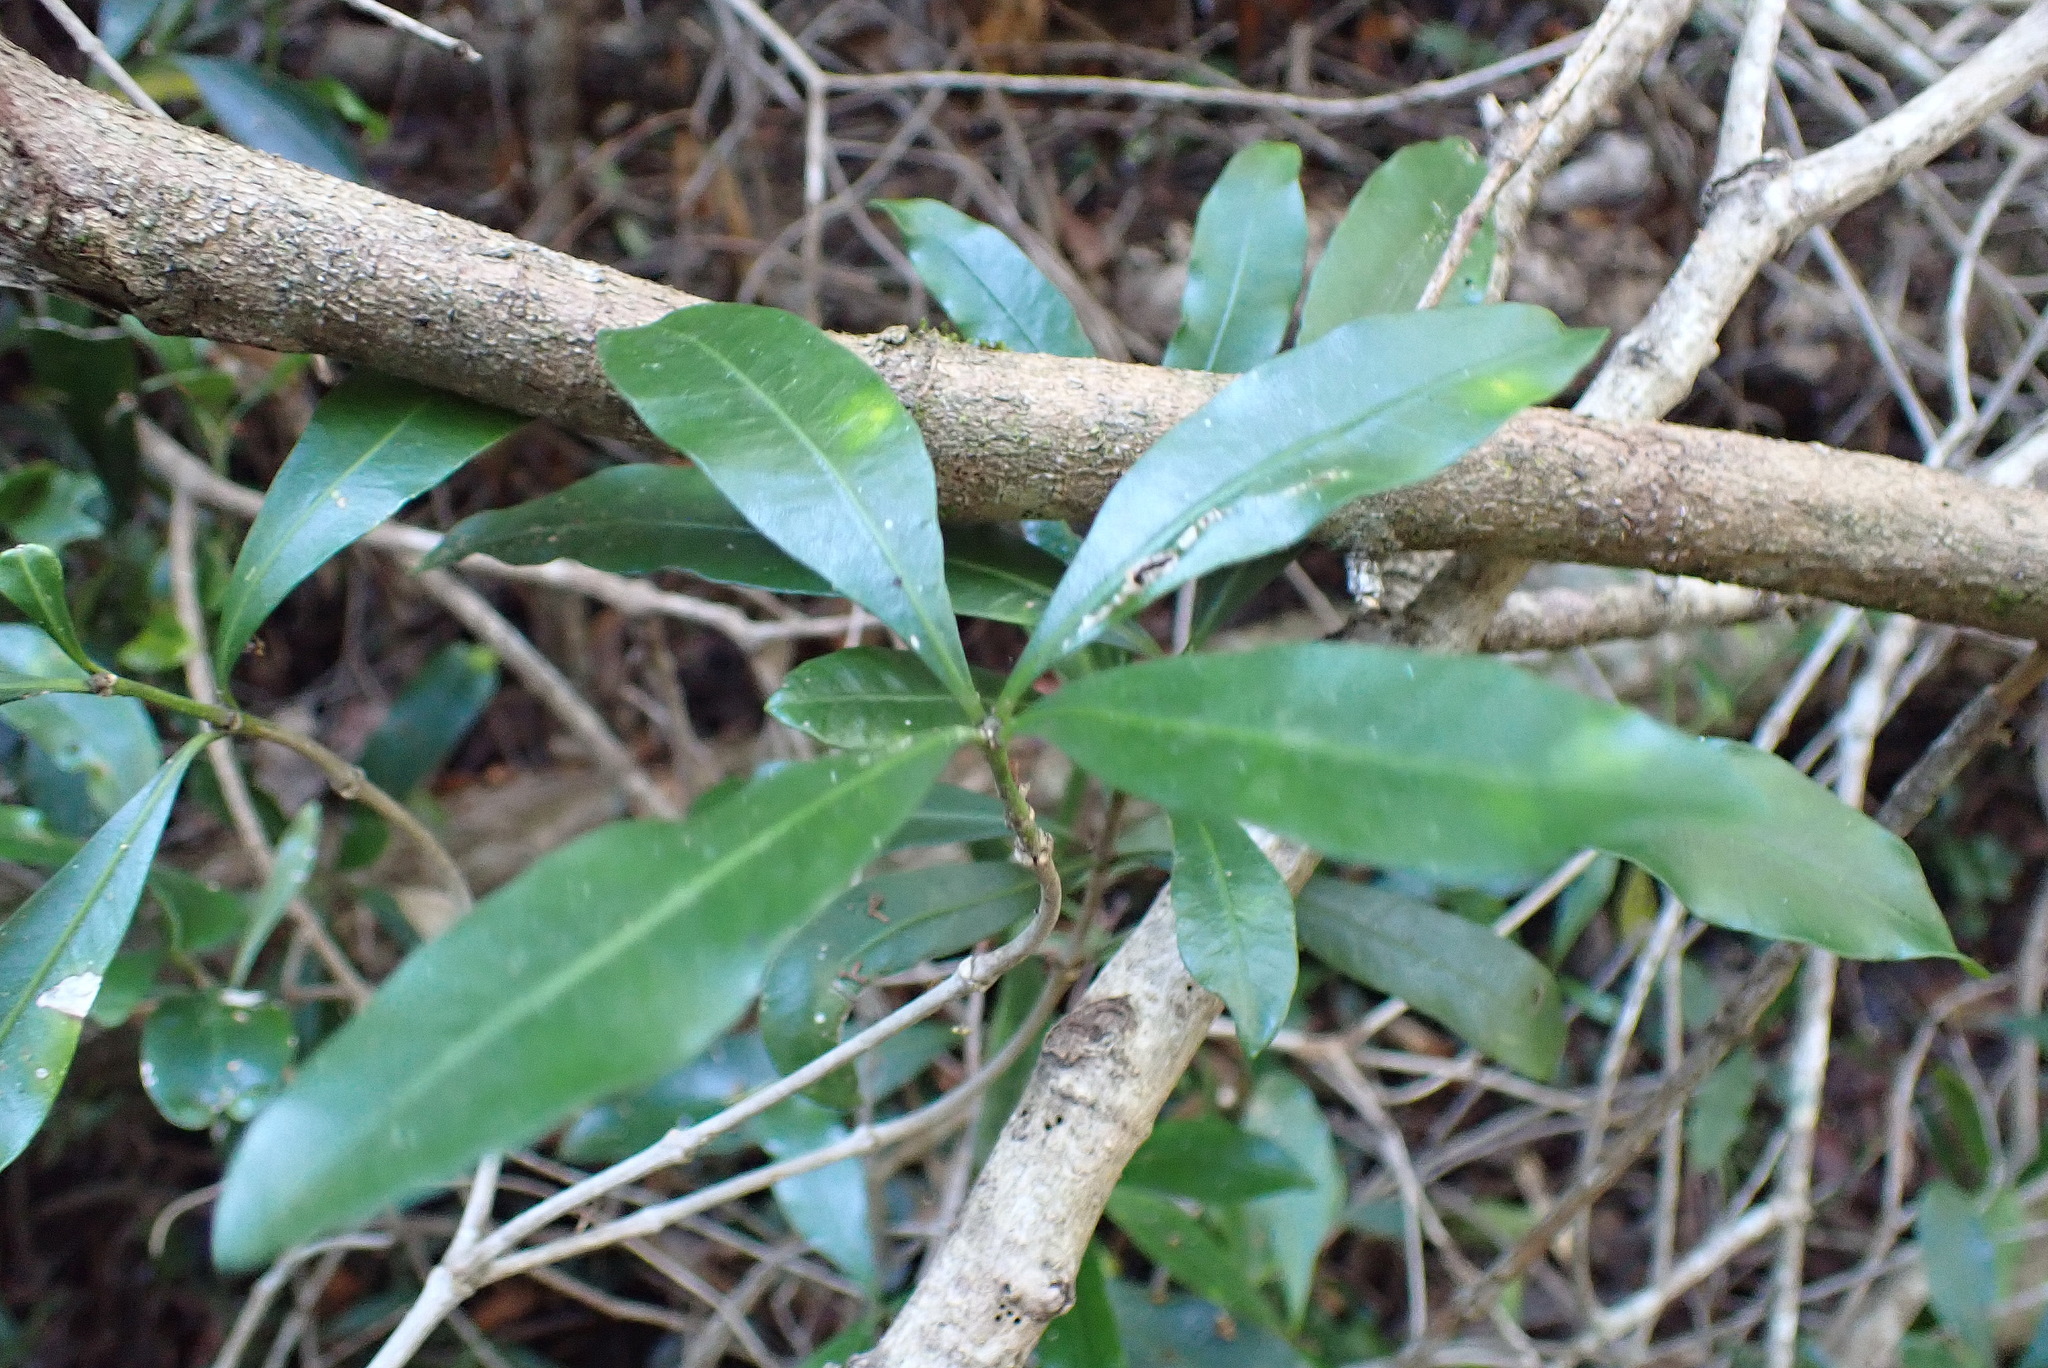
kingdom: Plantae
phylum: Tracheophyta
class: Magnoliopsida
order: Gentianales
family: Apocynaceae
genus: Gonioma
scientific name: Gonioma kamassi
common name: Kamassi
